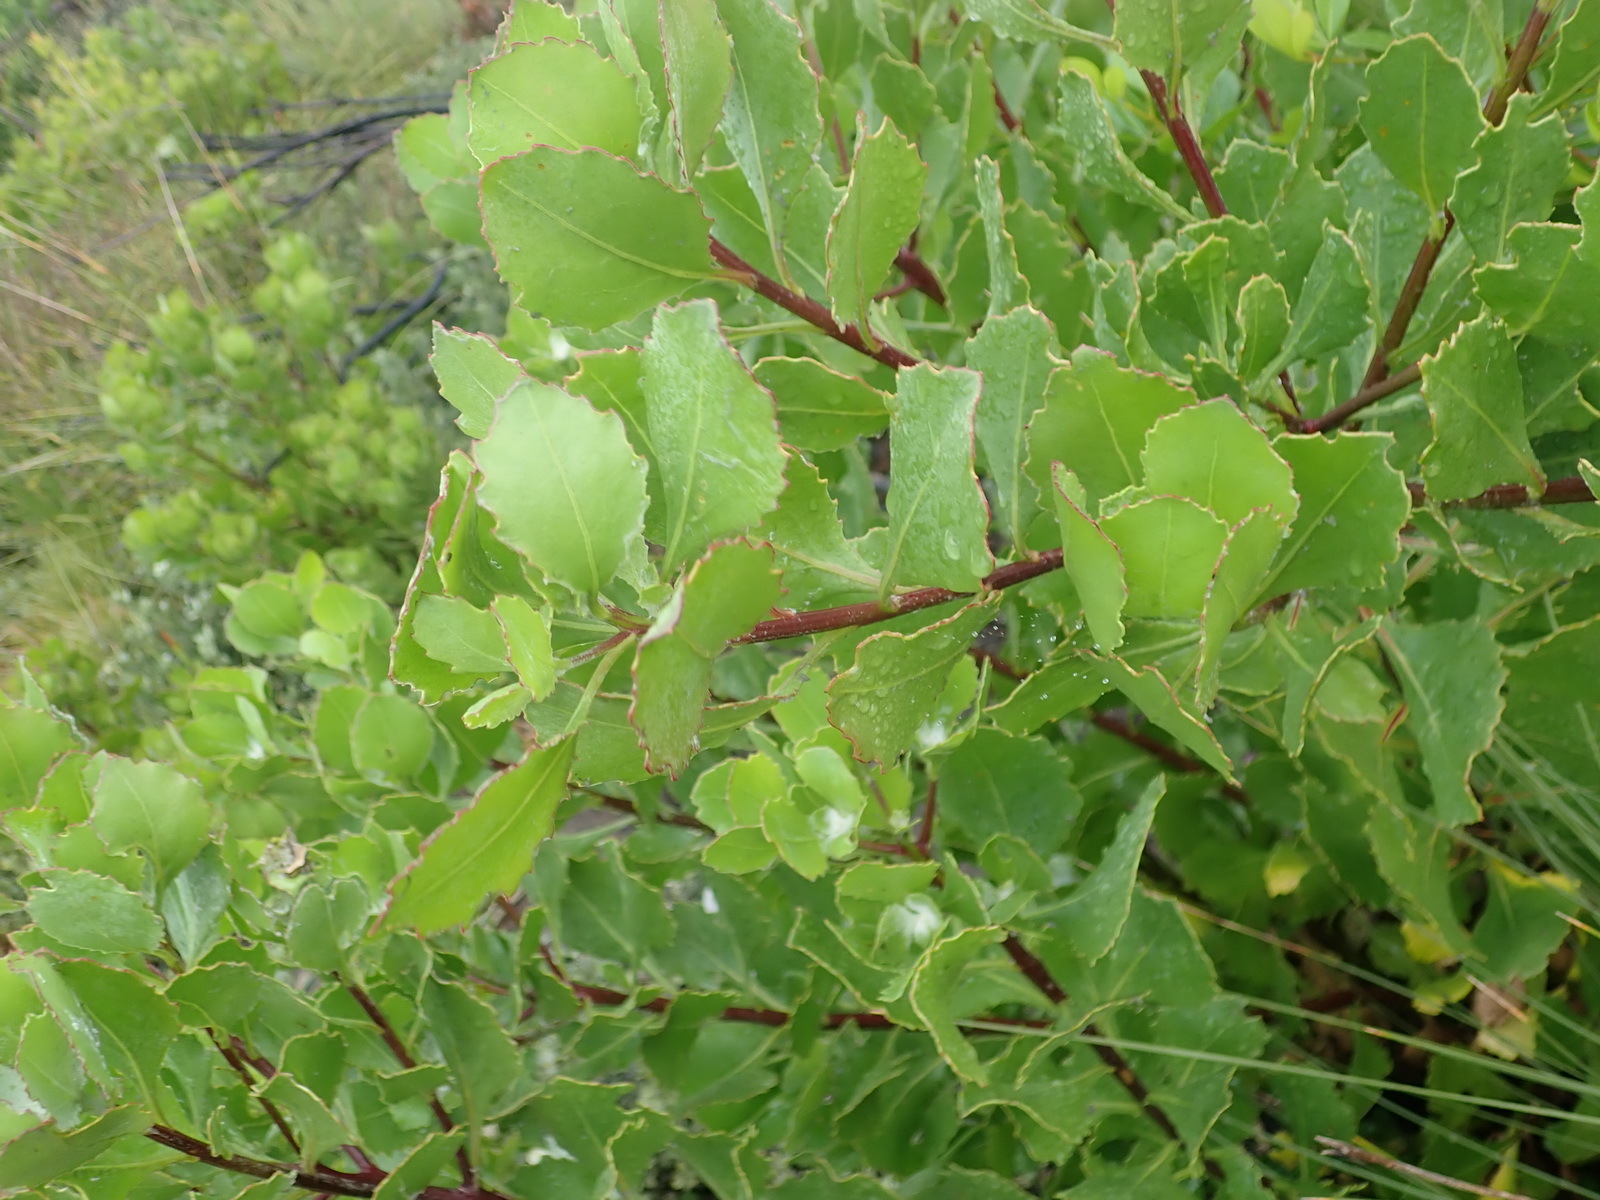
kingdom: Plantae
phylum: Tracheophyta
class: Magnoliopsida
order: Asterales
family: Asteraceae
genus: Osteospermum
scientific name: Osteospermum moniliferum
